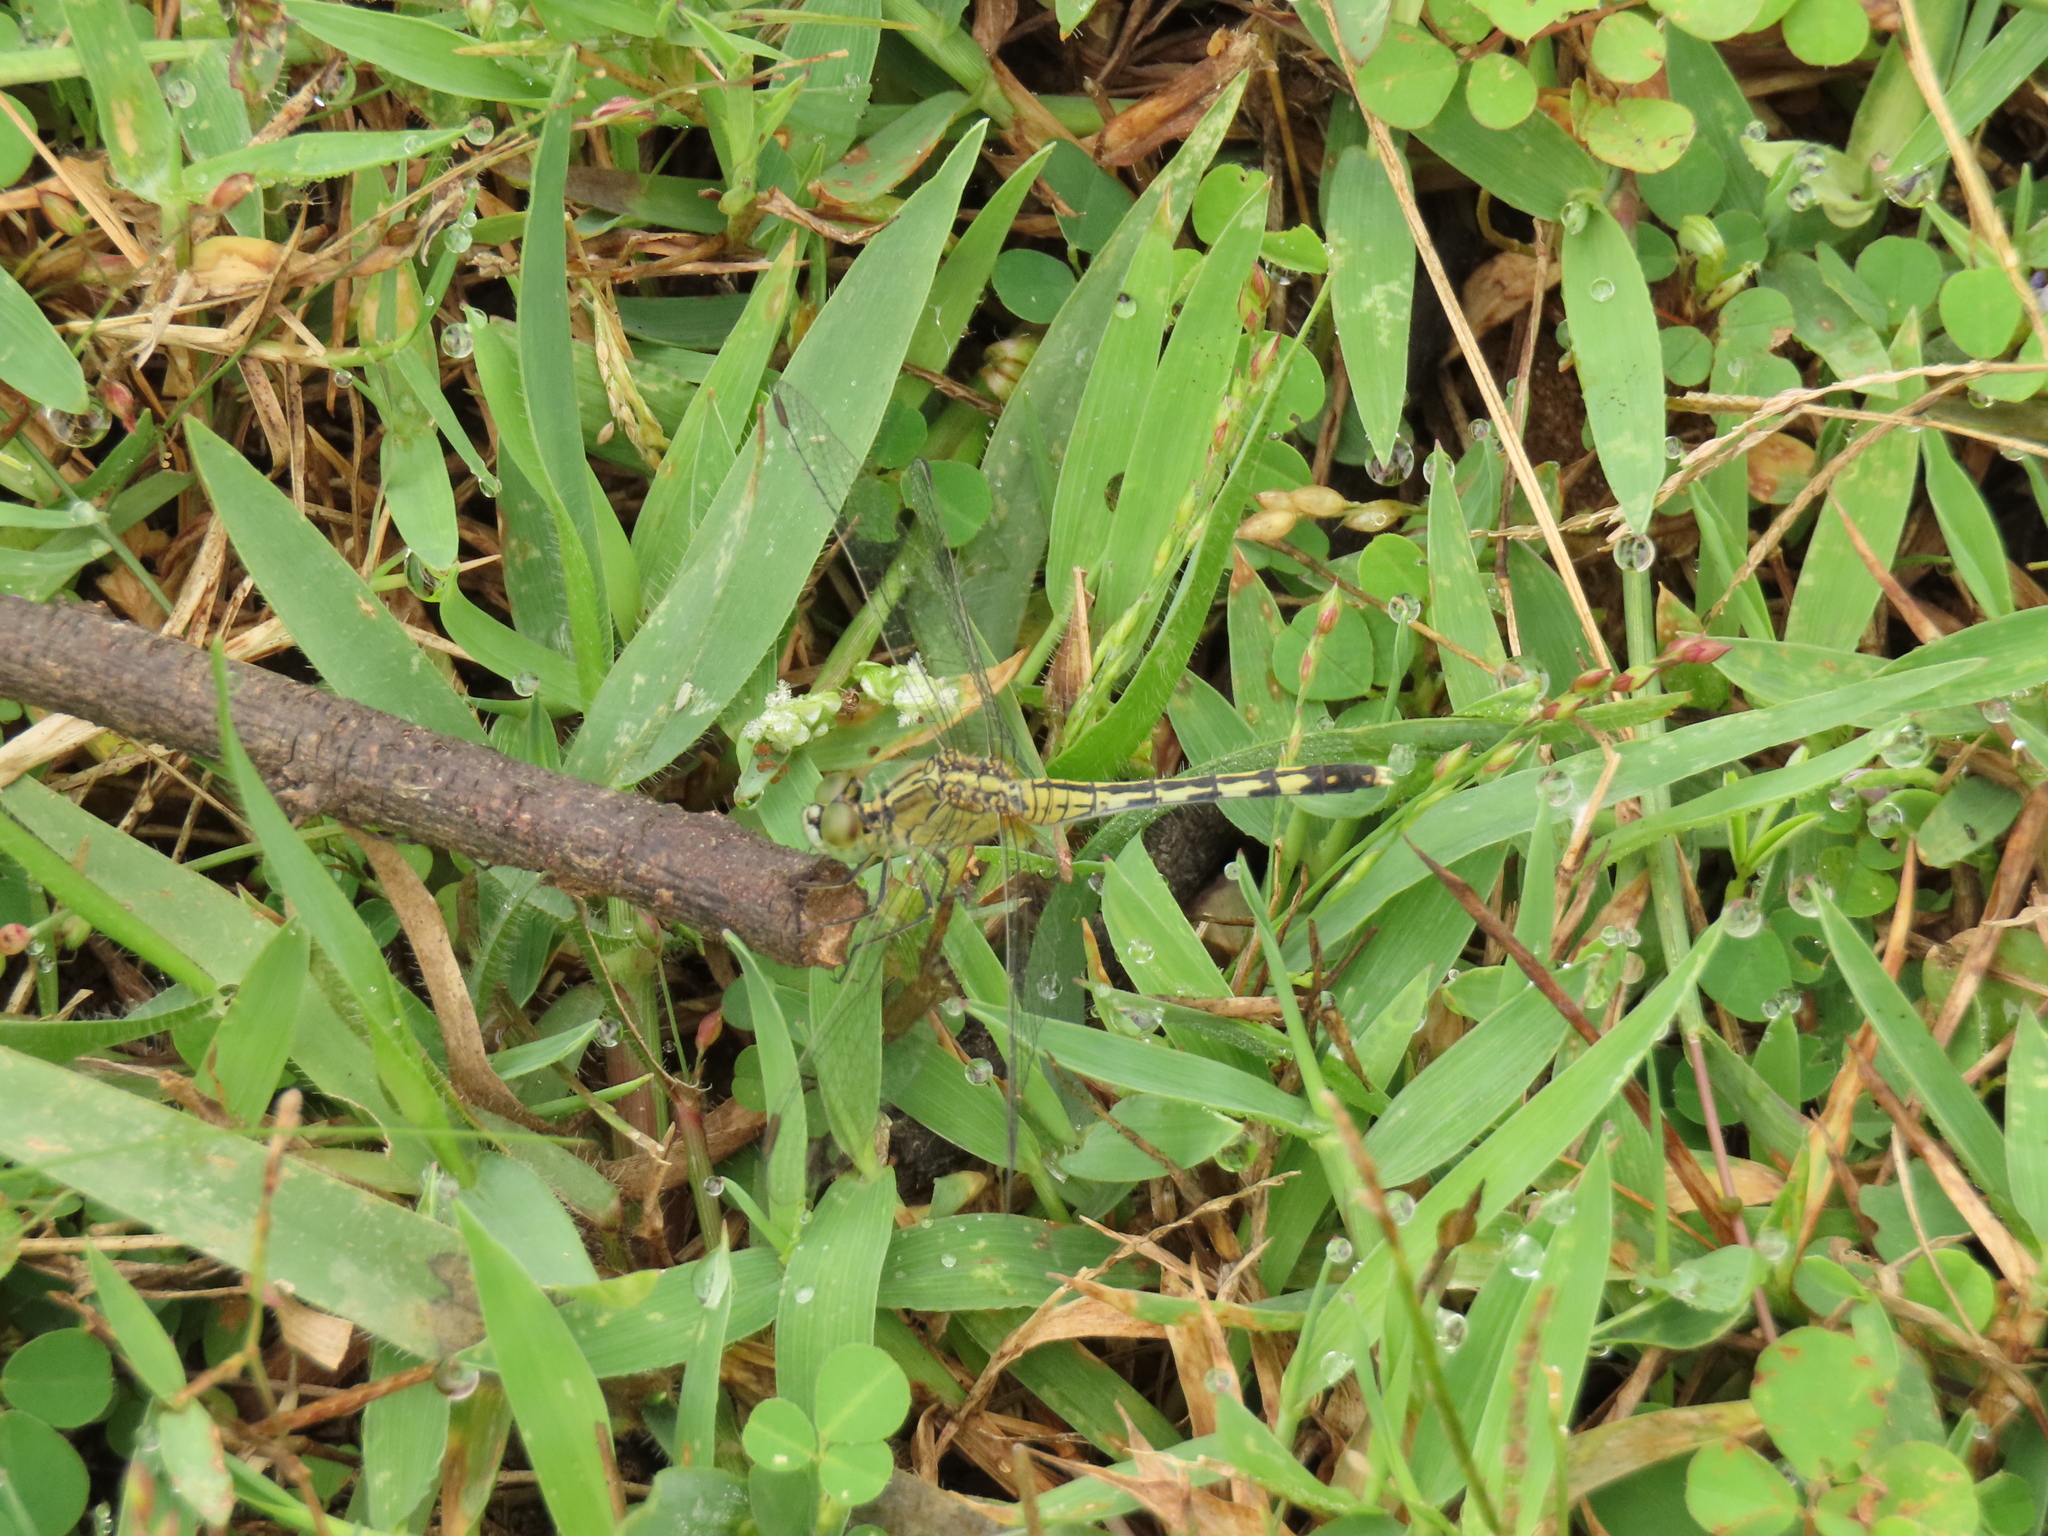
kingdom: Animalia
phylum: Arthropoda
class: Insecta
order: Odonata
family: Libellulidae
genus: Diplacodes
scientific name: Diplacodes trivialis
